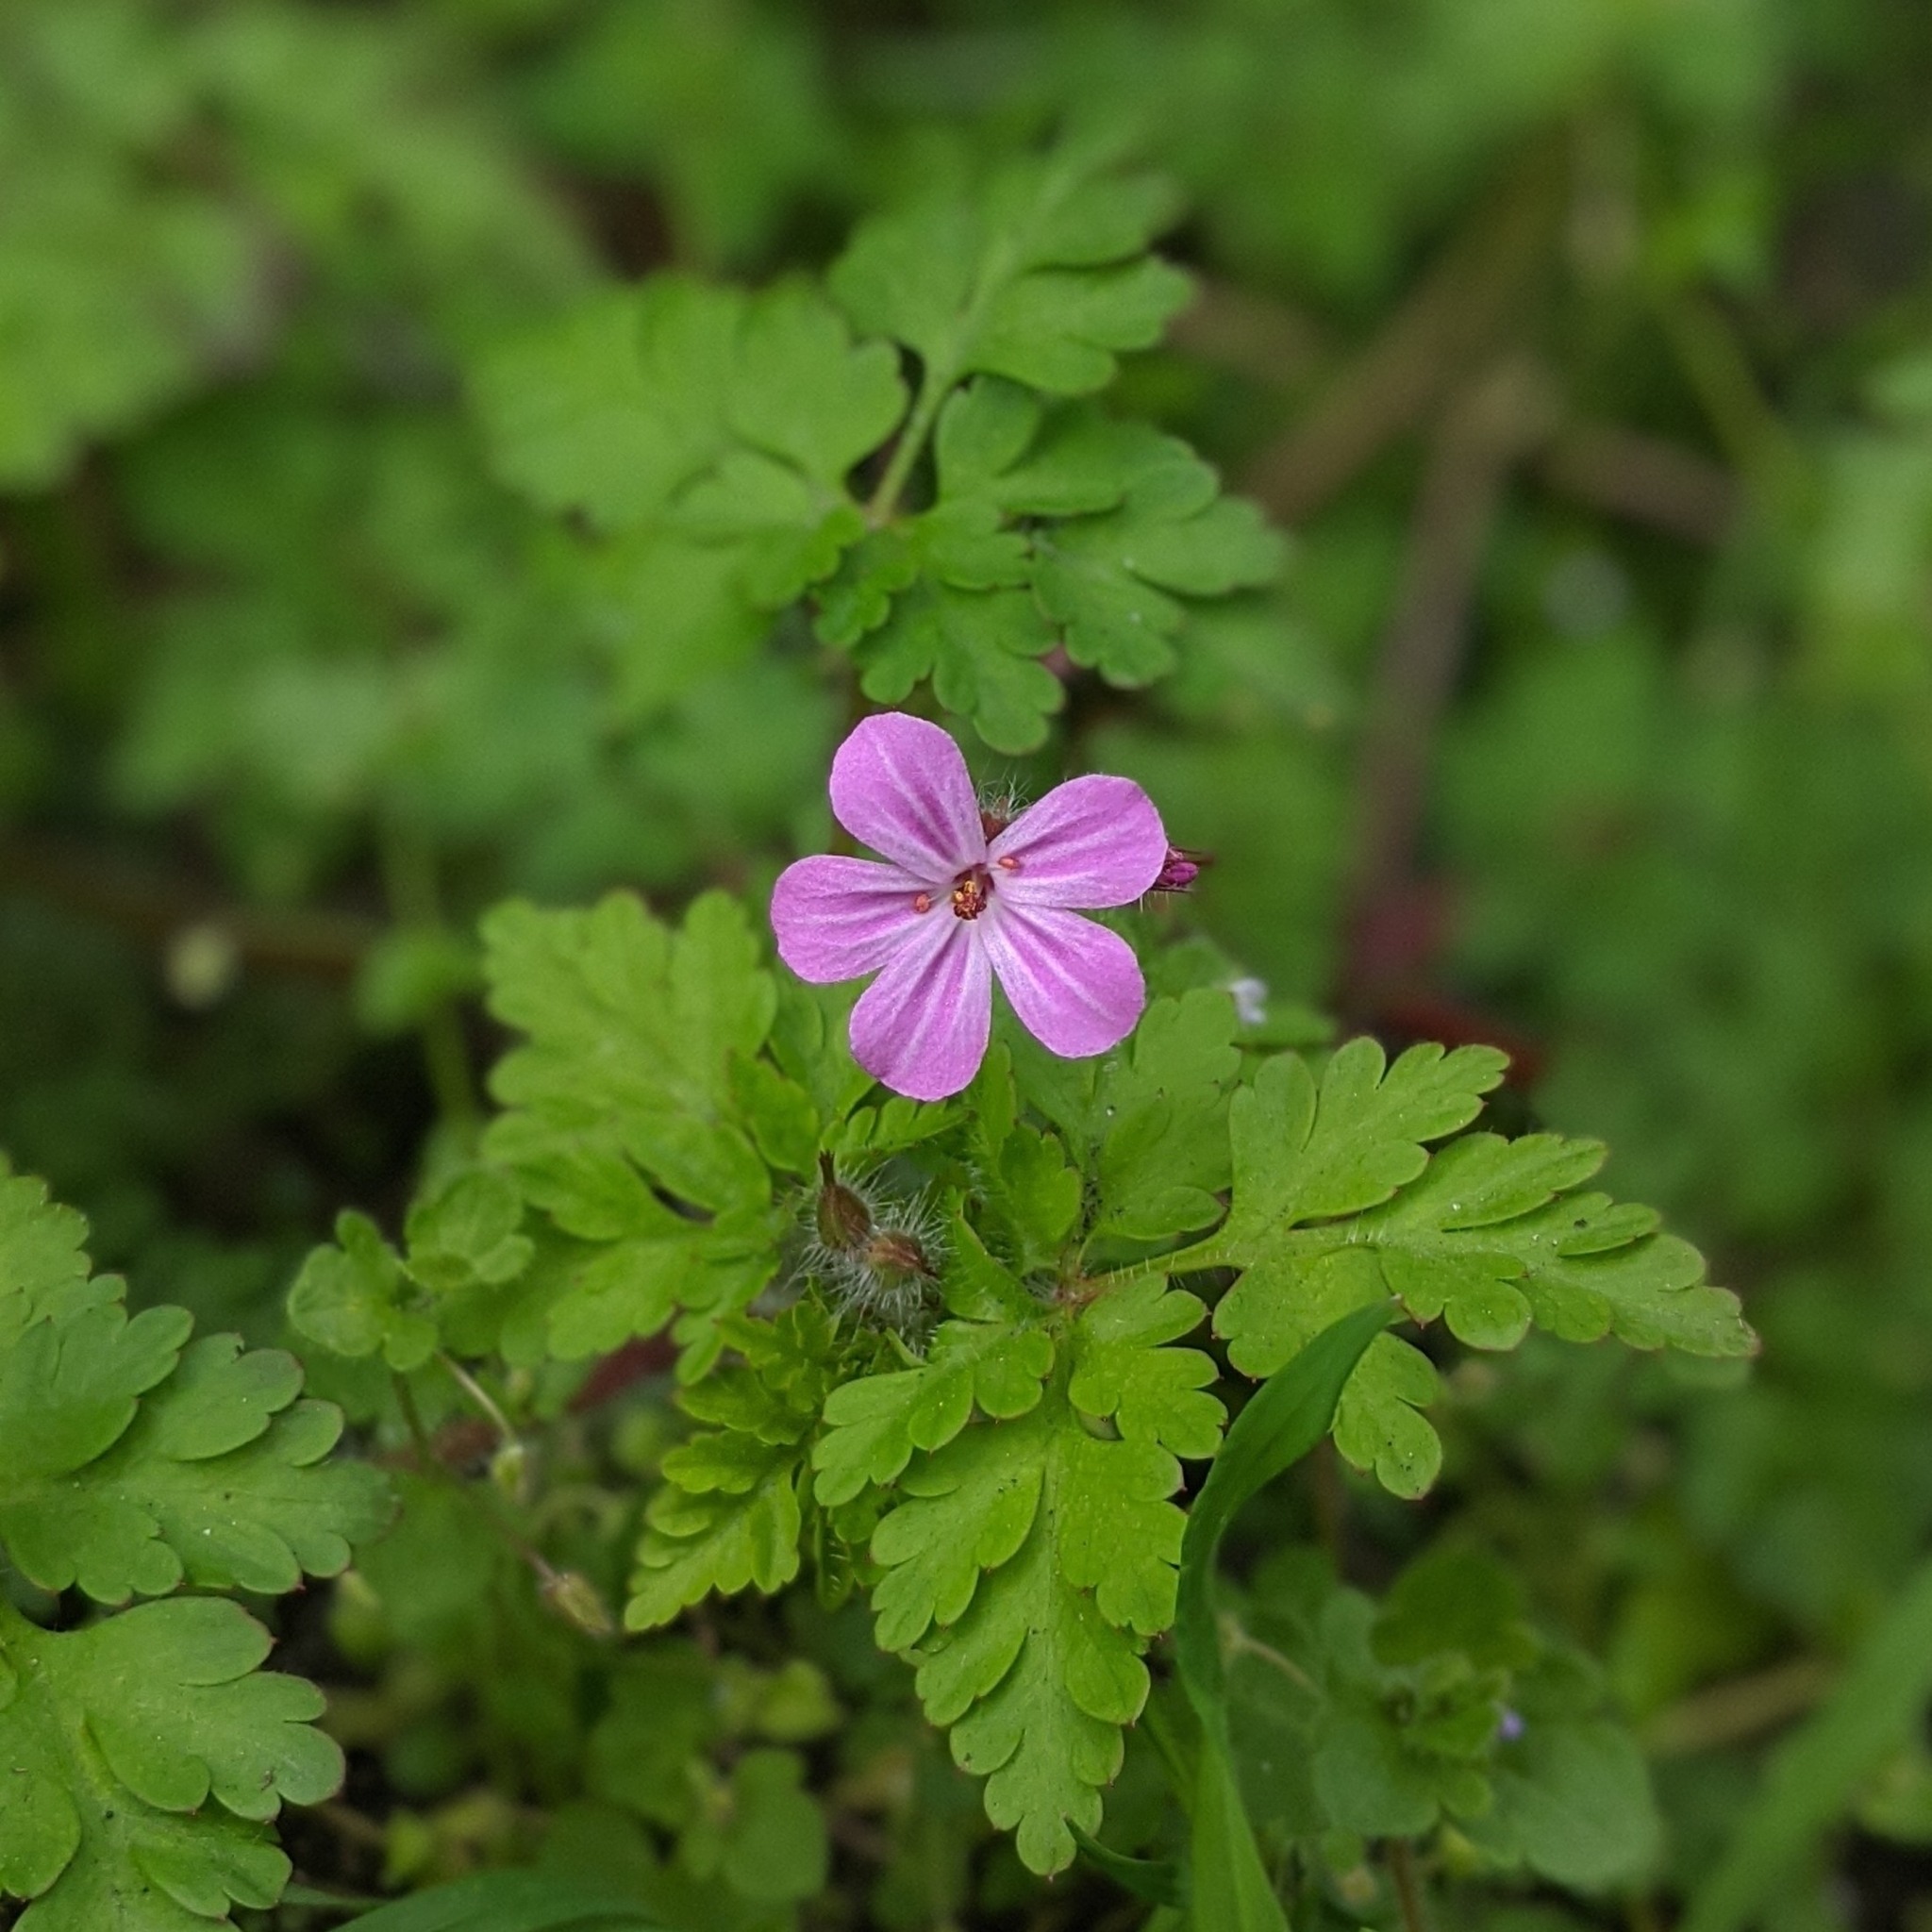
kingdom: Plantae
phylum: Tracheophyta
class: Magnoliopsida
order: Geraniales
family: Geraniaceae
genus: Geranium
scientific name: Geranium robertianum
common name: Herb-robert
